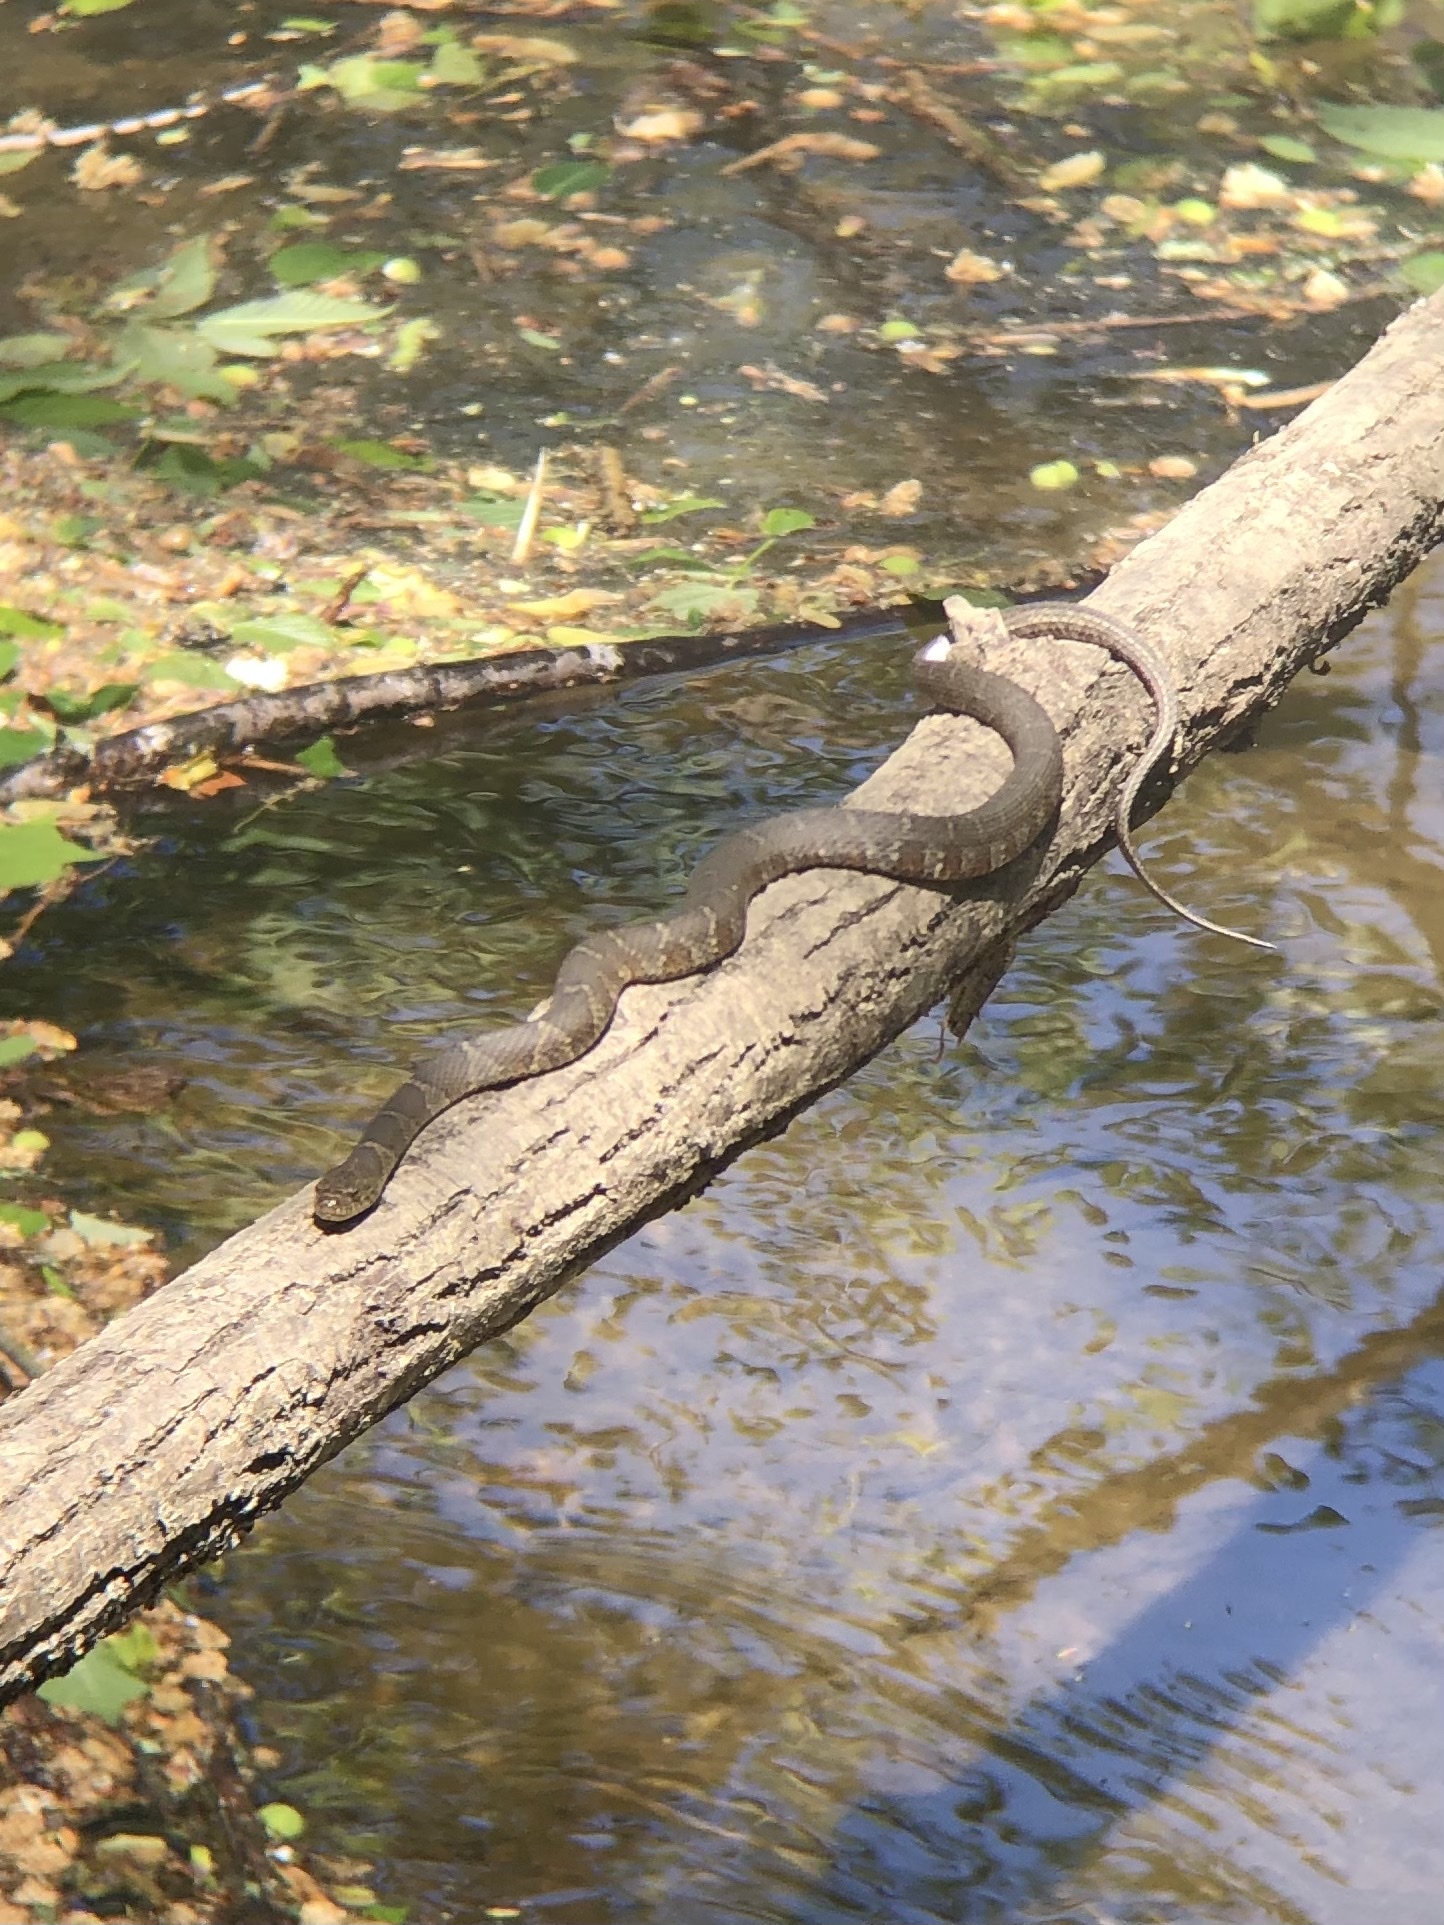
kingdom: Animalia
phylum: Chordata
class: Squamata
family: Colubridae
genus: Nerodia
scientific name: Nerodia sipedon
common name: Northern water snake
